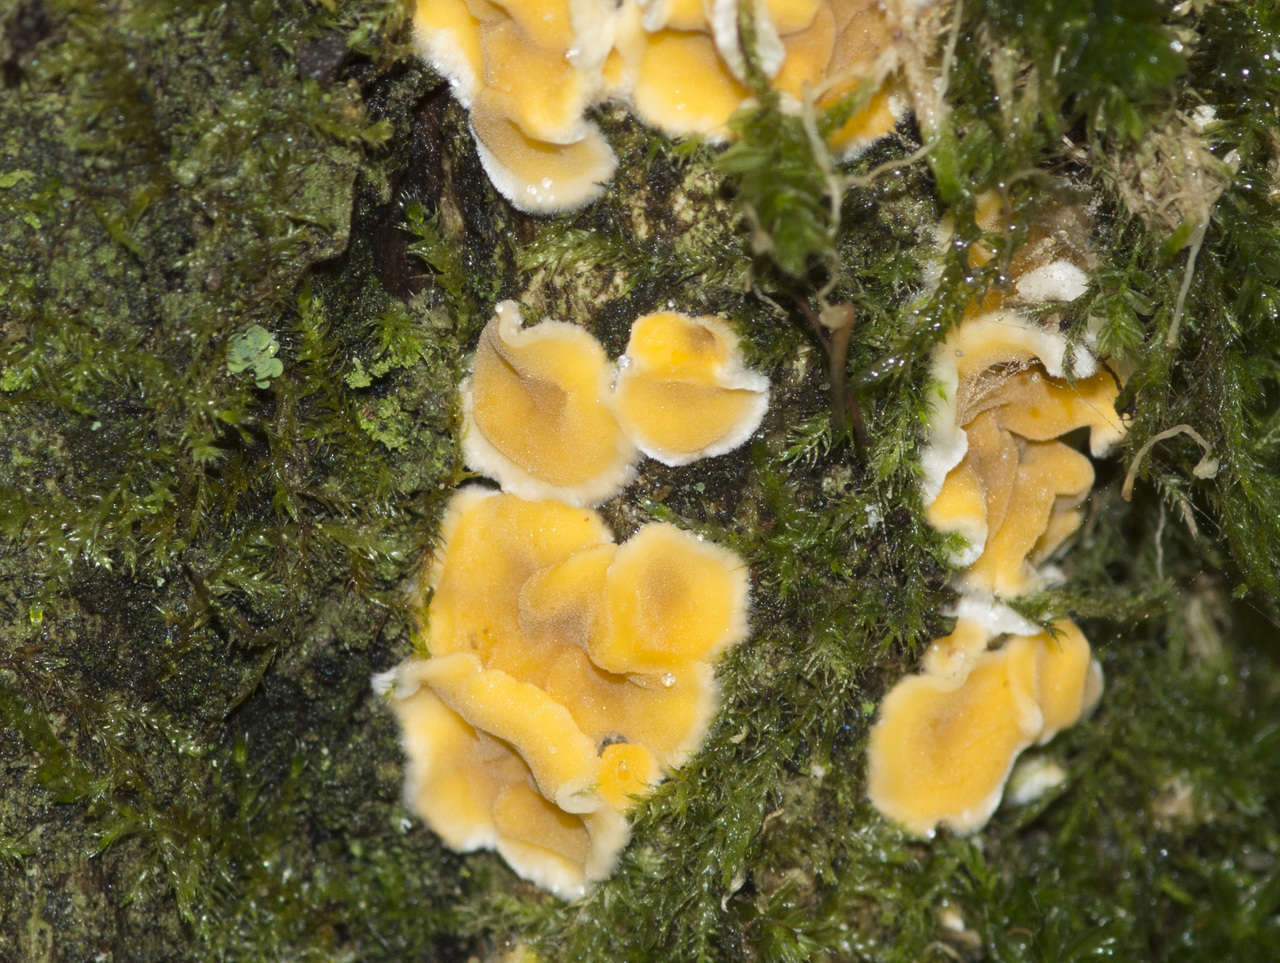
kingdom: Fungi
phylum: Basidiomycota
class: Agaricomycetes
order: Russulales
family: Stereaceae
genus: Stereodiscus
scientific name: Stereodiscus limonisporus
